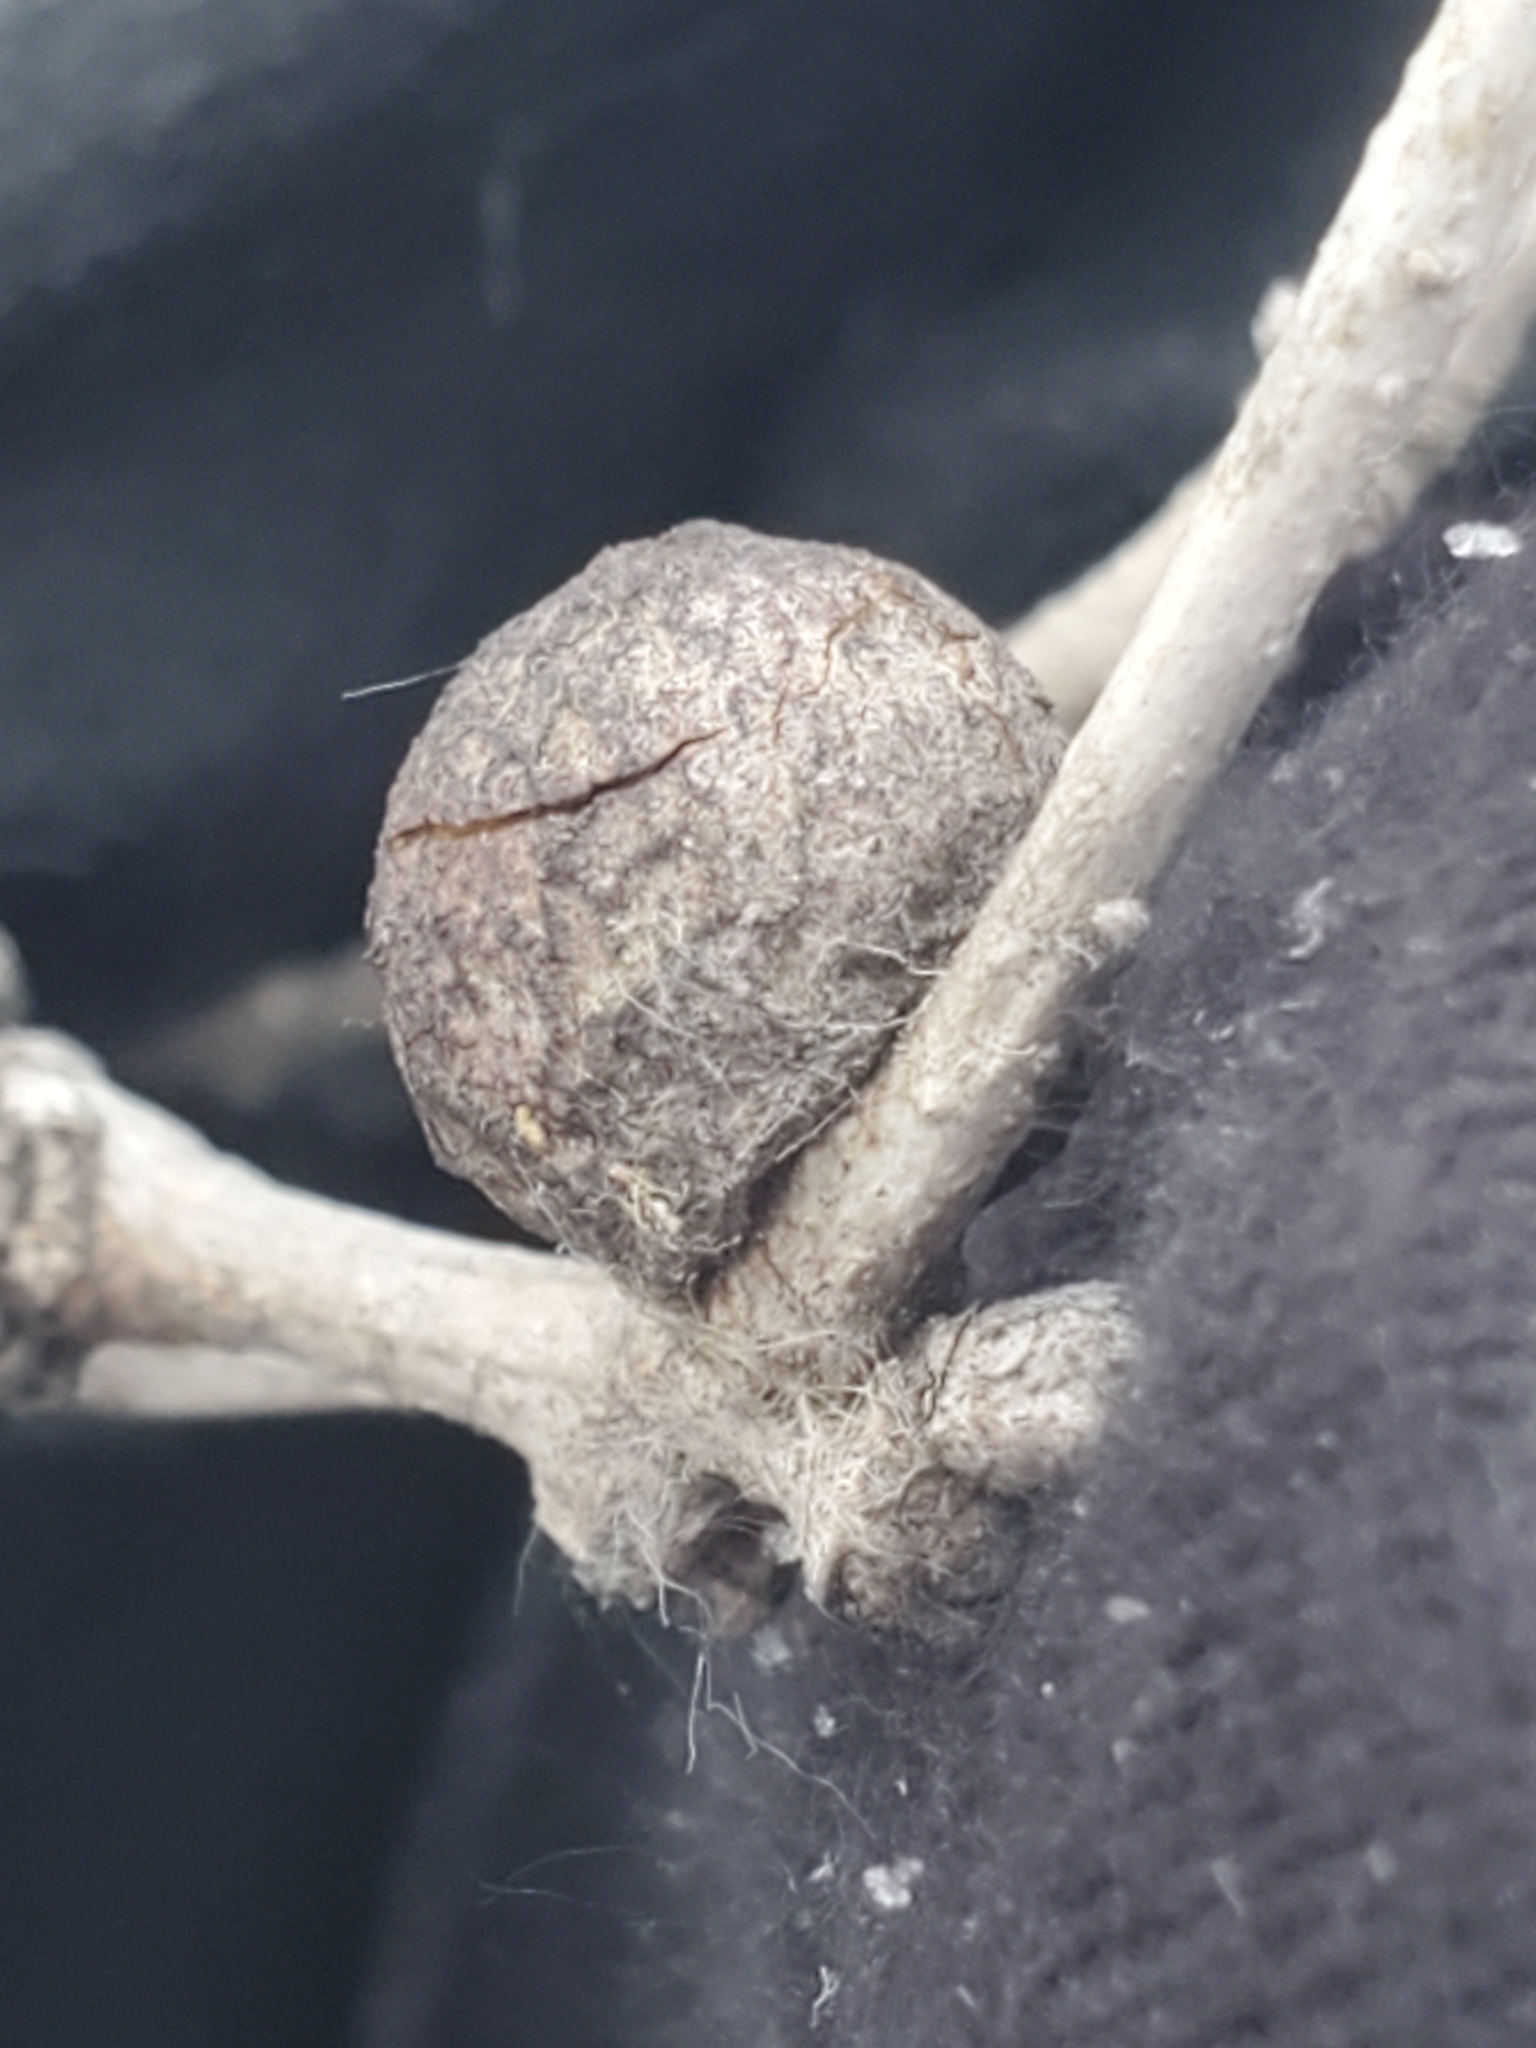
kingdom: Animalia
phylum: Arthropoda
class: Insecta
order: Hymenoptera
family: Cynipidae
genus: Disholcaspis
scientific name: Disholcaspis
